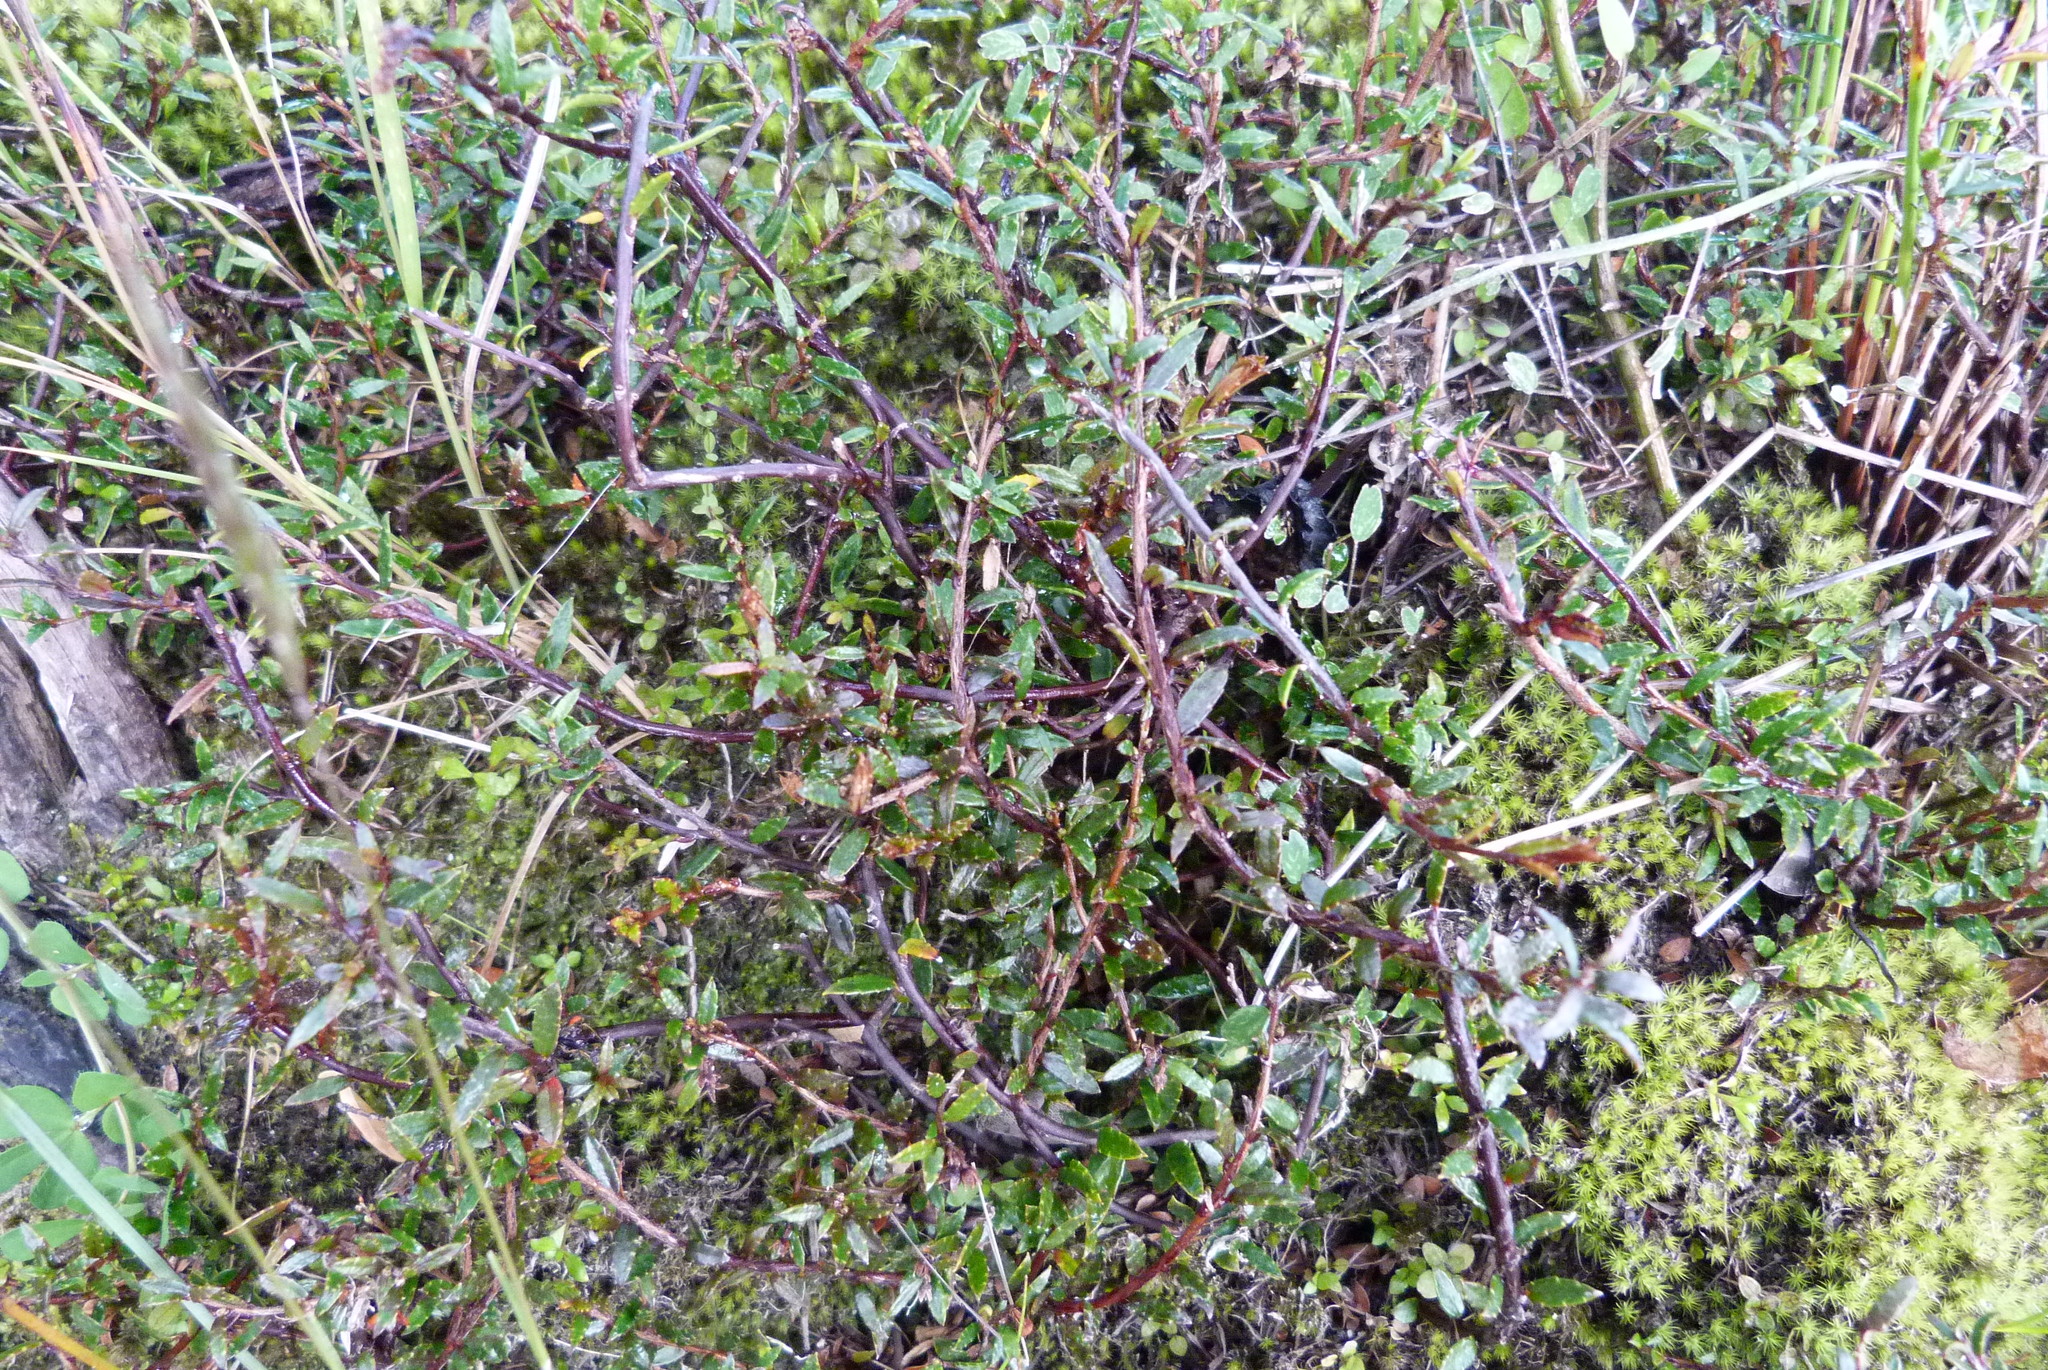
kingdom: Plantae
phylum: Tracheophyta
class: Magnoliopsida
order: Ericales
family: Ericaceae
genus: Gaultheria
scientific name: Gaultheria macrostigma
